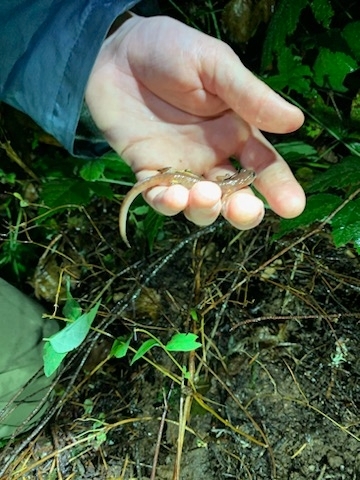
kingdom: Animalia
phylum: Chordata
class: Amphibia
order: Caudata
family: Plethodontidae
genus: Ensatina
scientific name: Ensatina eschscholtzii
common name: Ensatina
